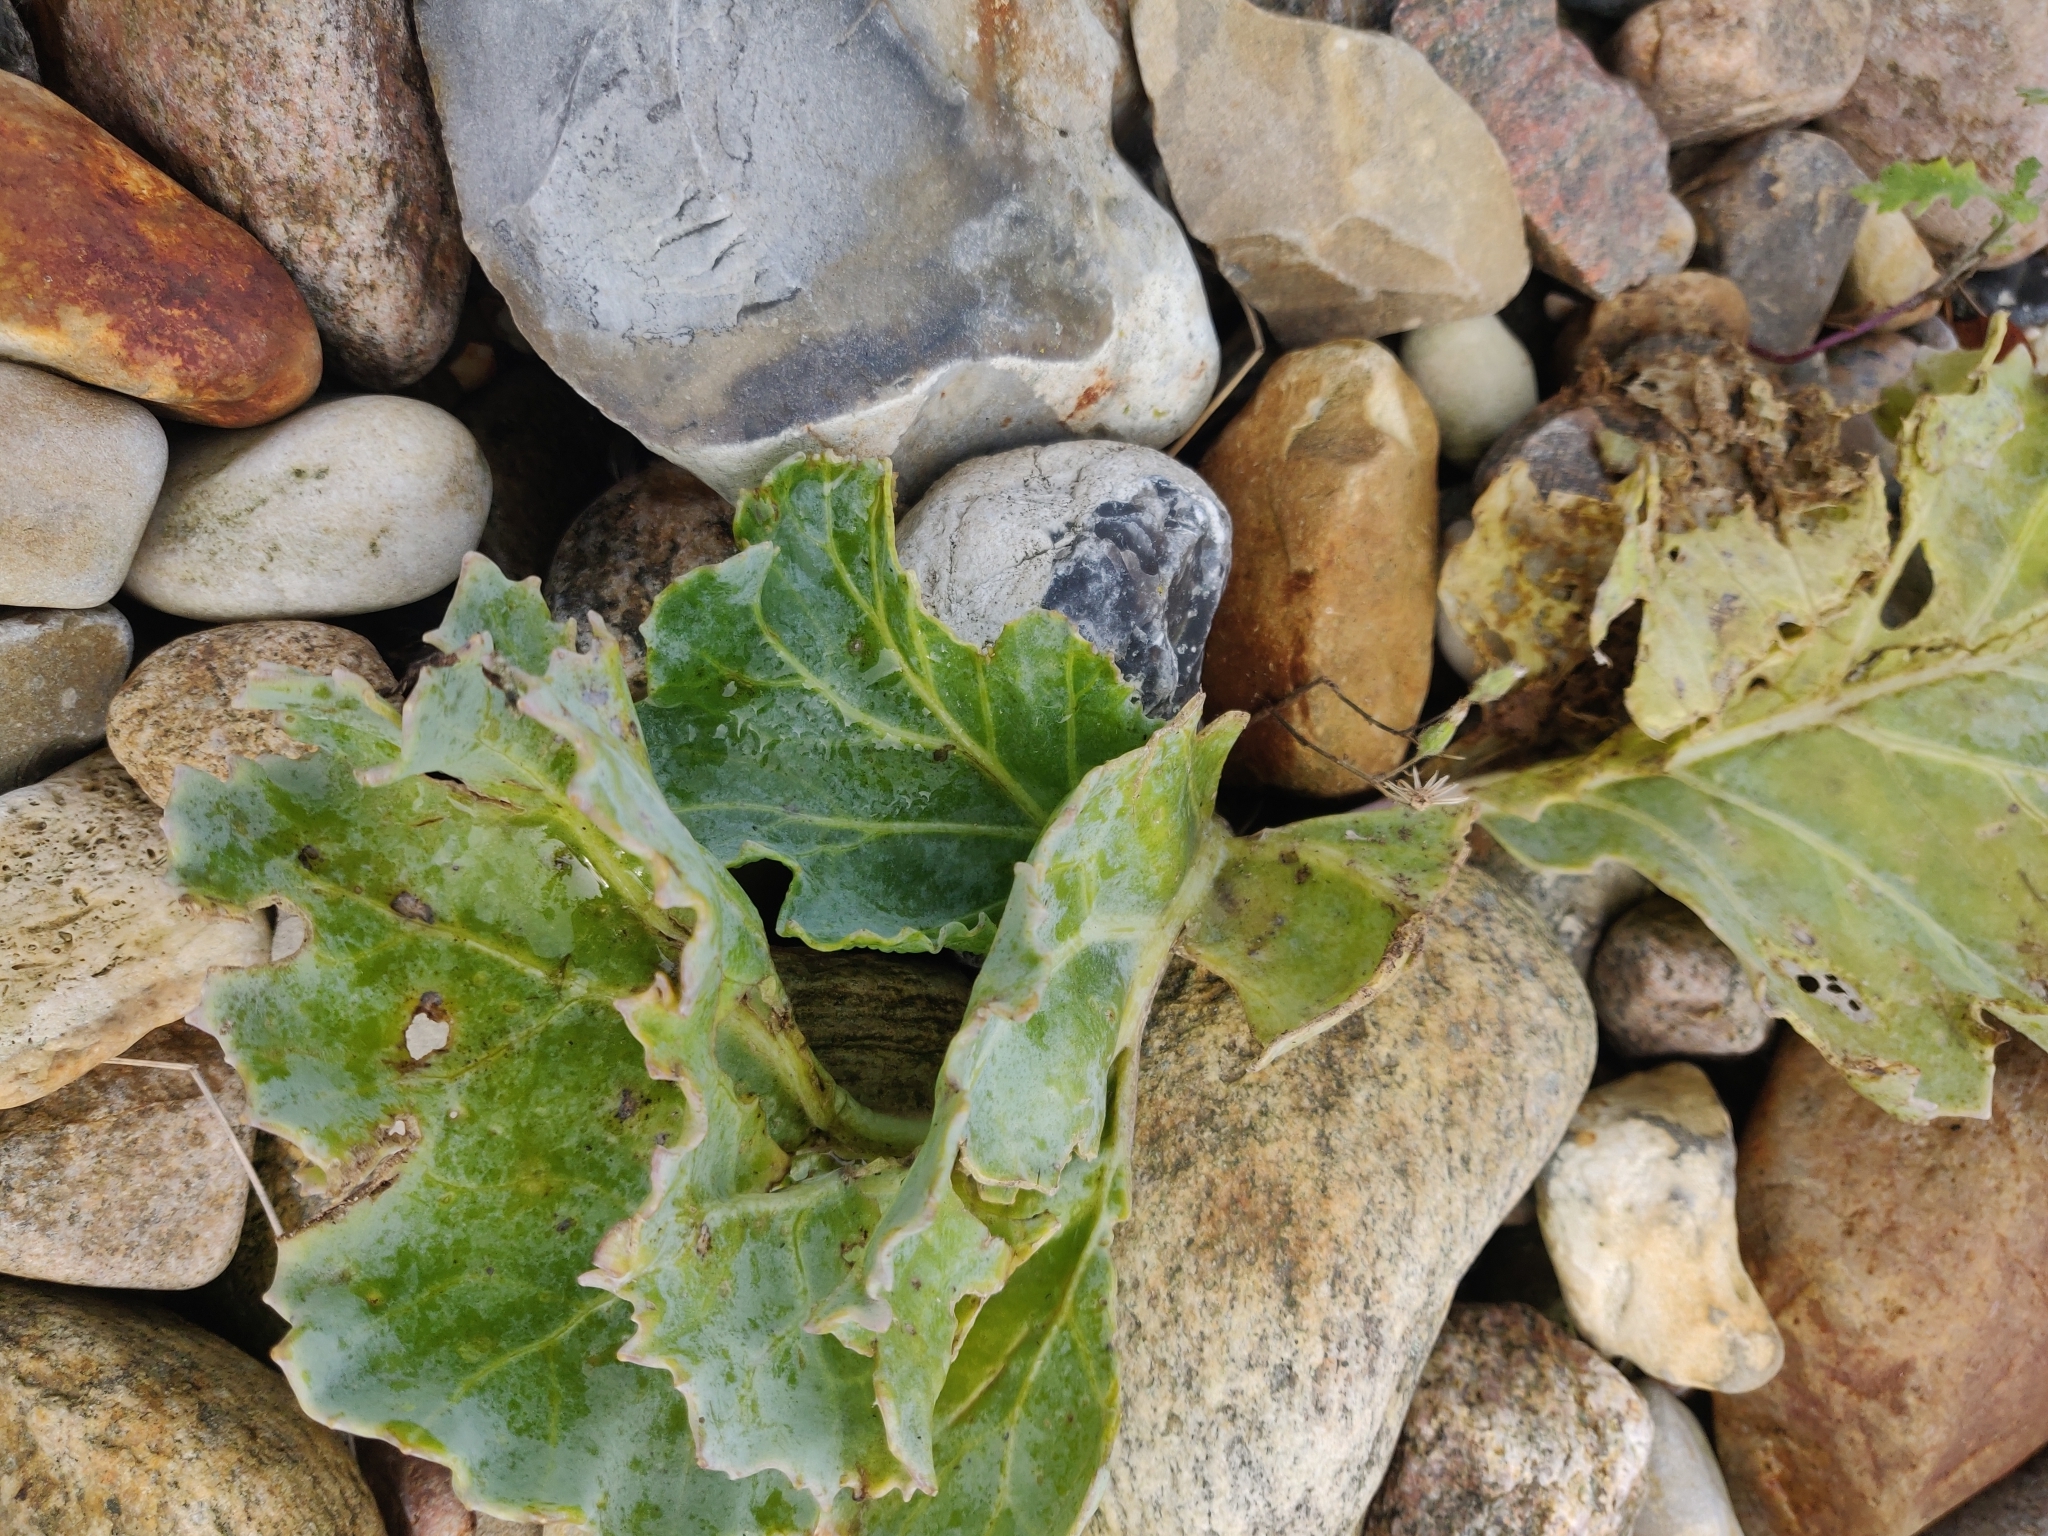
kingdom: Plantae
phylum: Tracheophyta
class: Magnoliopsida
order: Brassicales
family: Brassicaceae
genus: Crambe
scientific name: Crambe maritima
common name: Sea-kale
